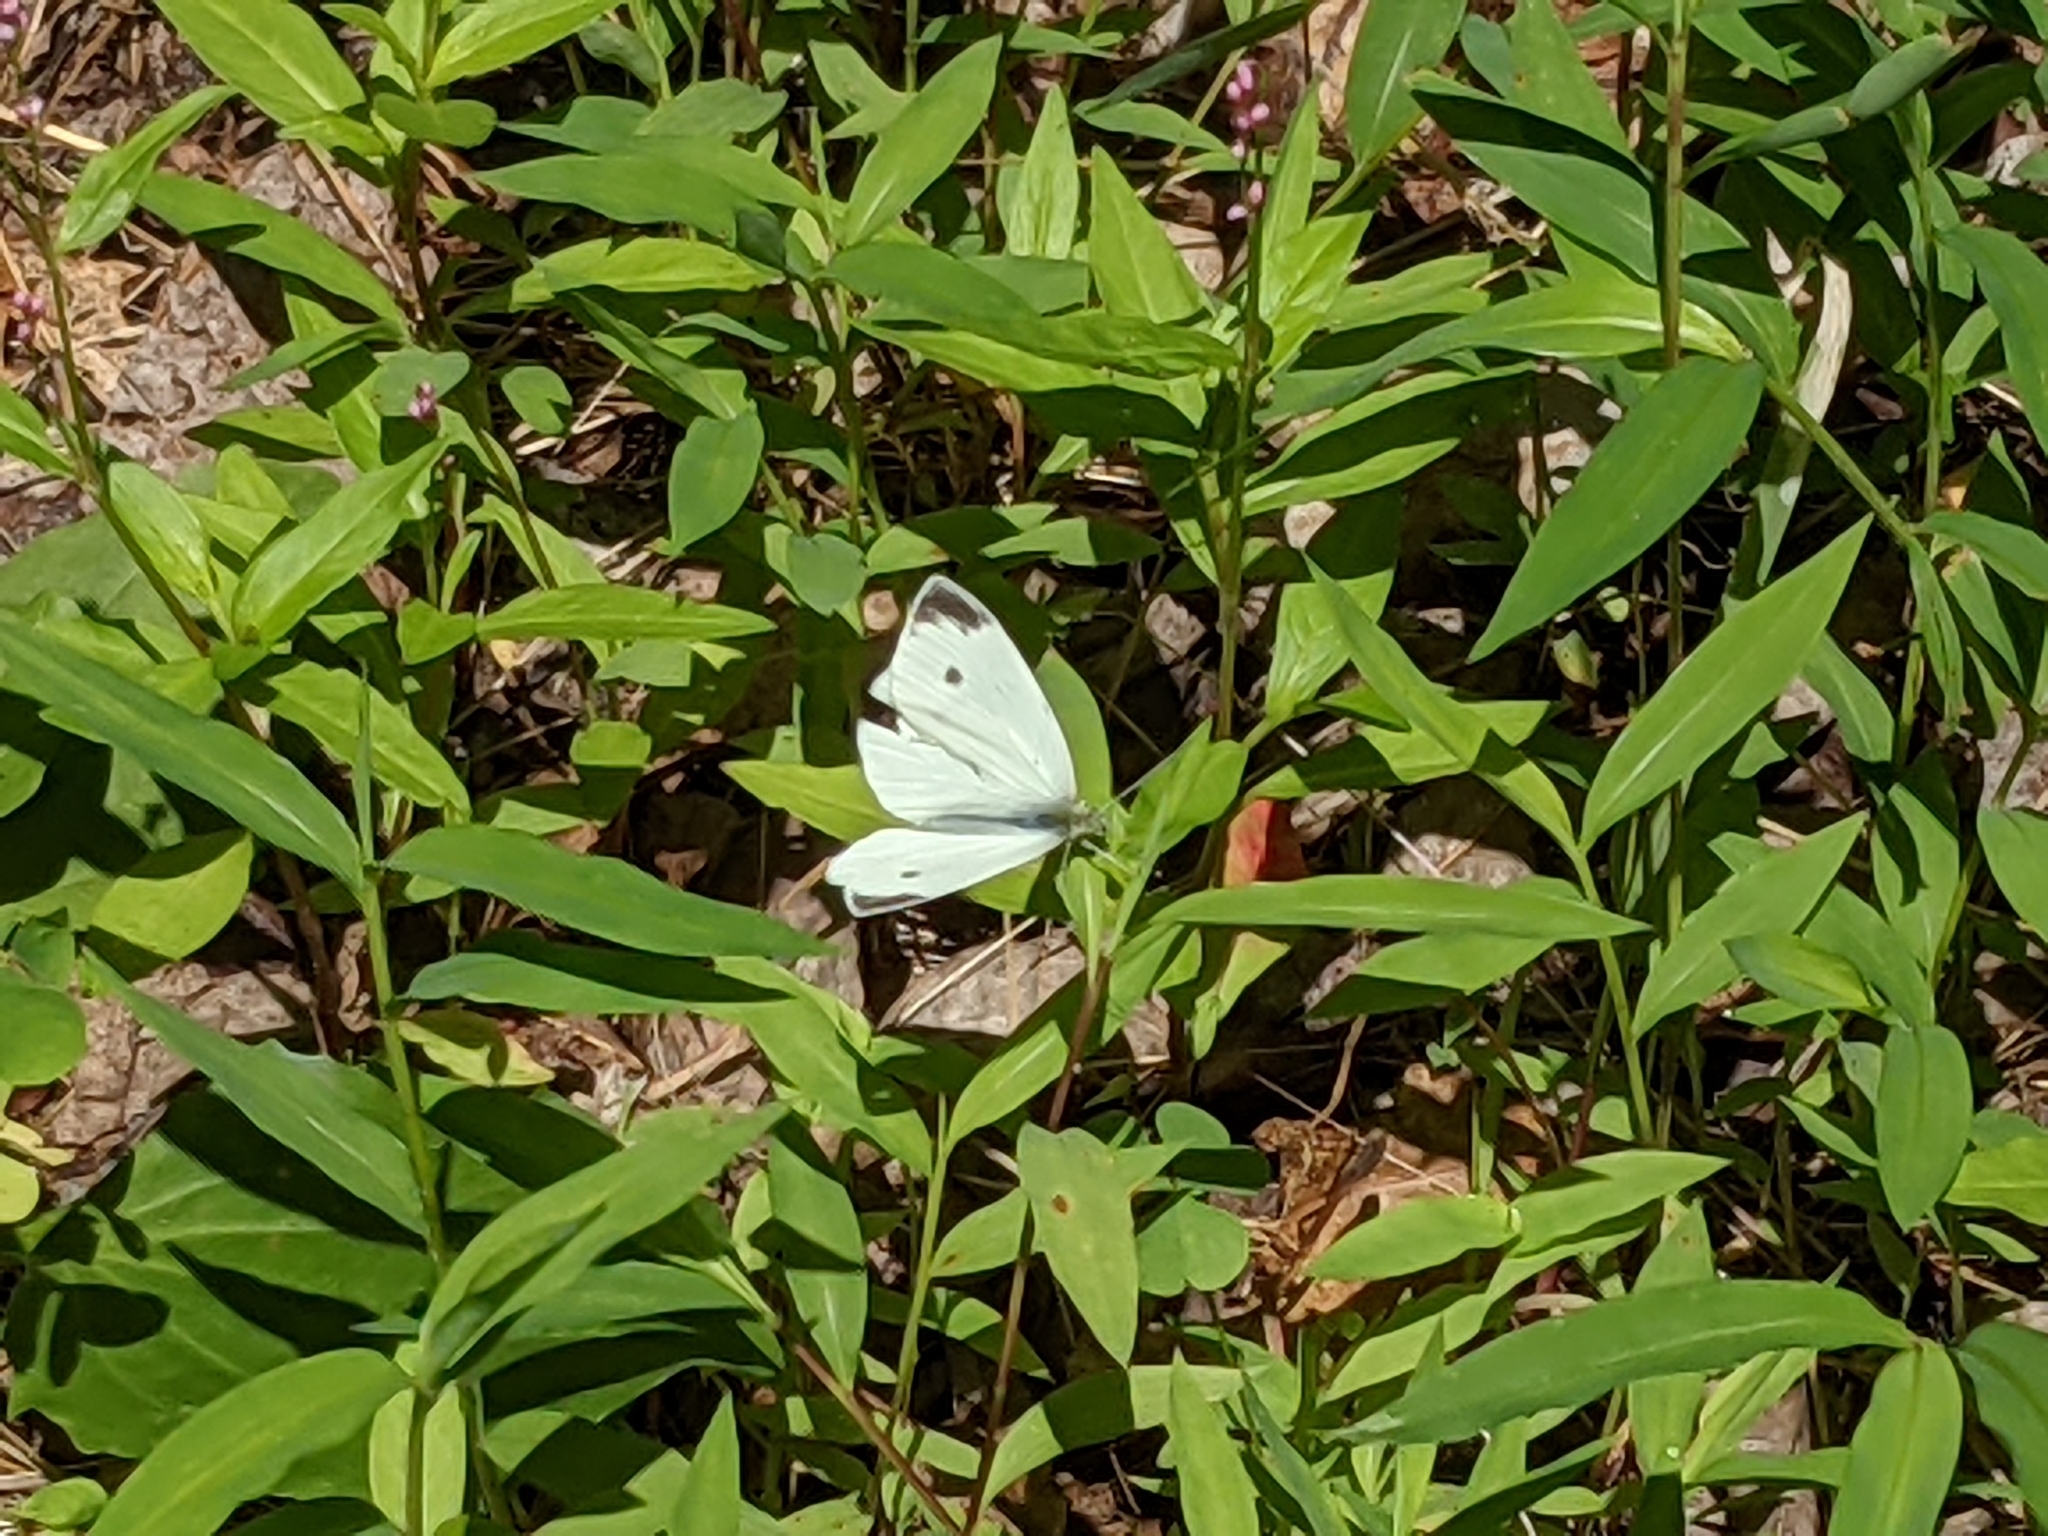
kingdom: Animalia
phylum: Arthropoda
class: Insecta
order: Lepidoptera
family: Pieridae
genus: Pieris
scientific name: Pieris rapae
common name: Small white
